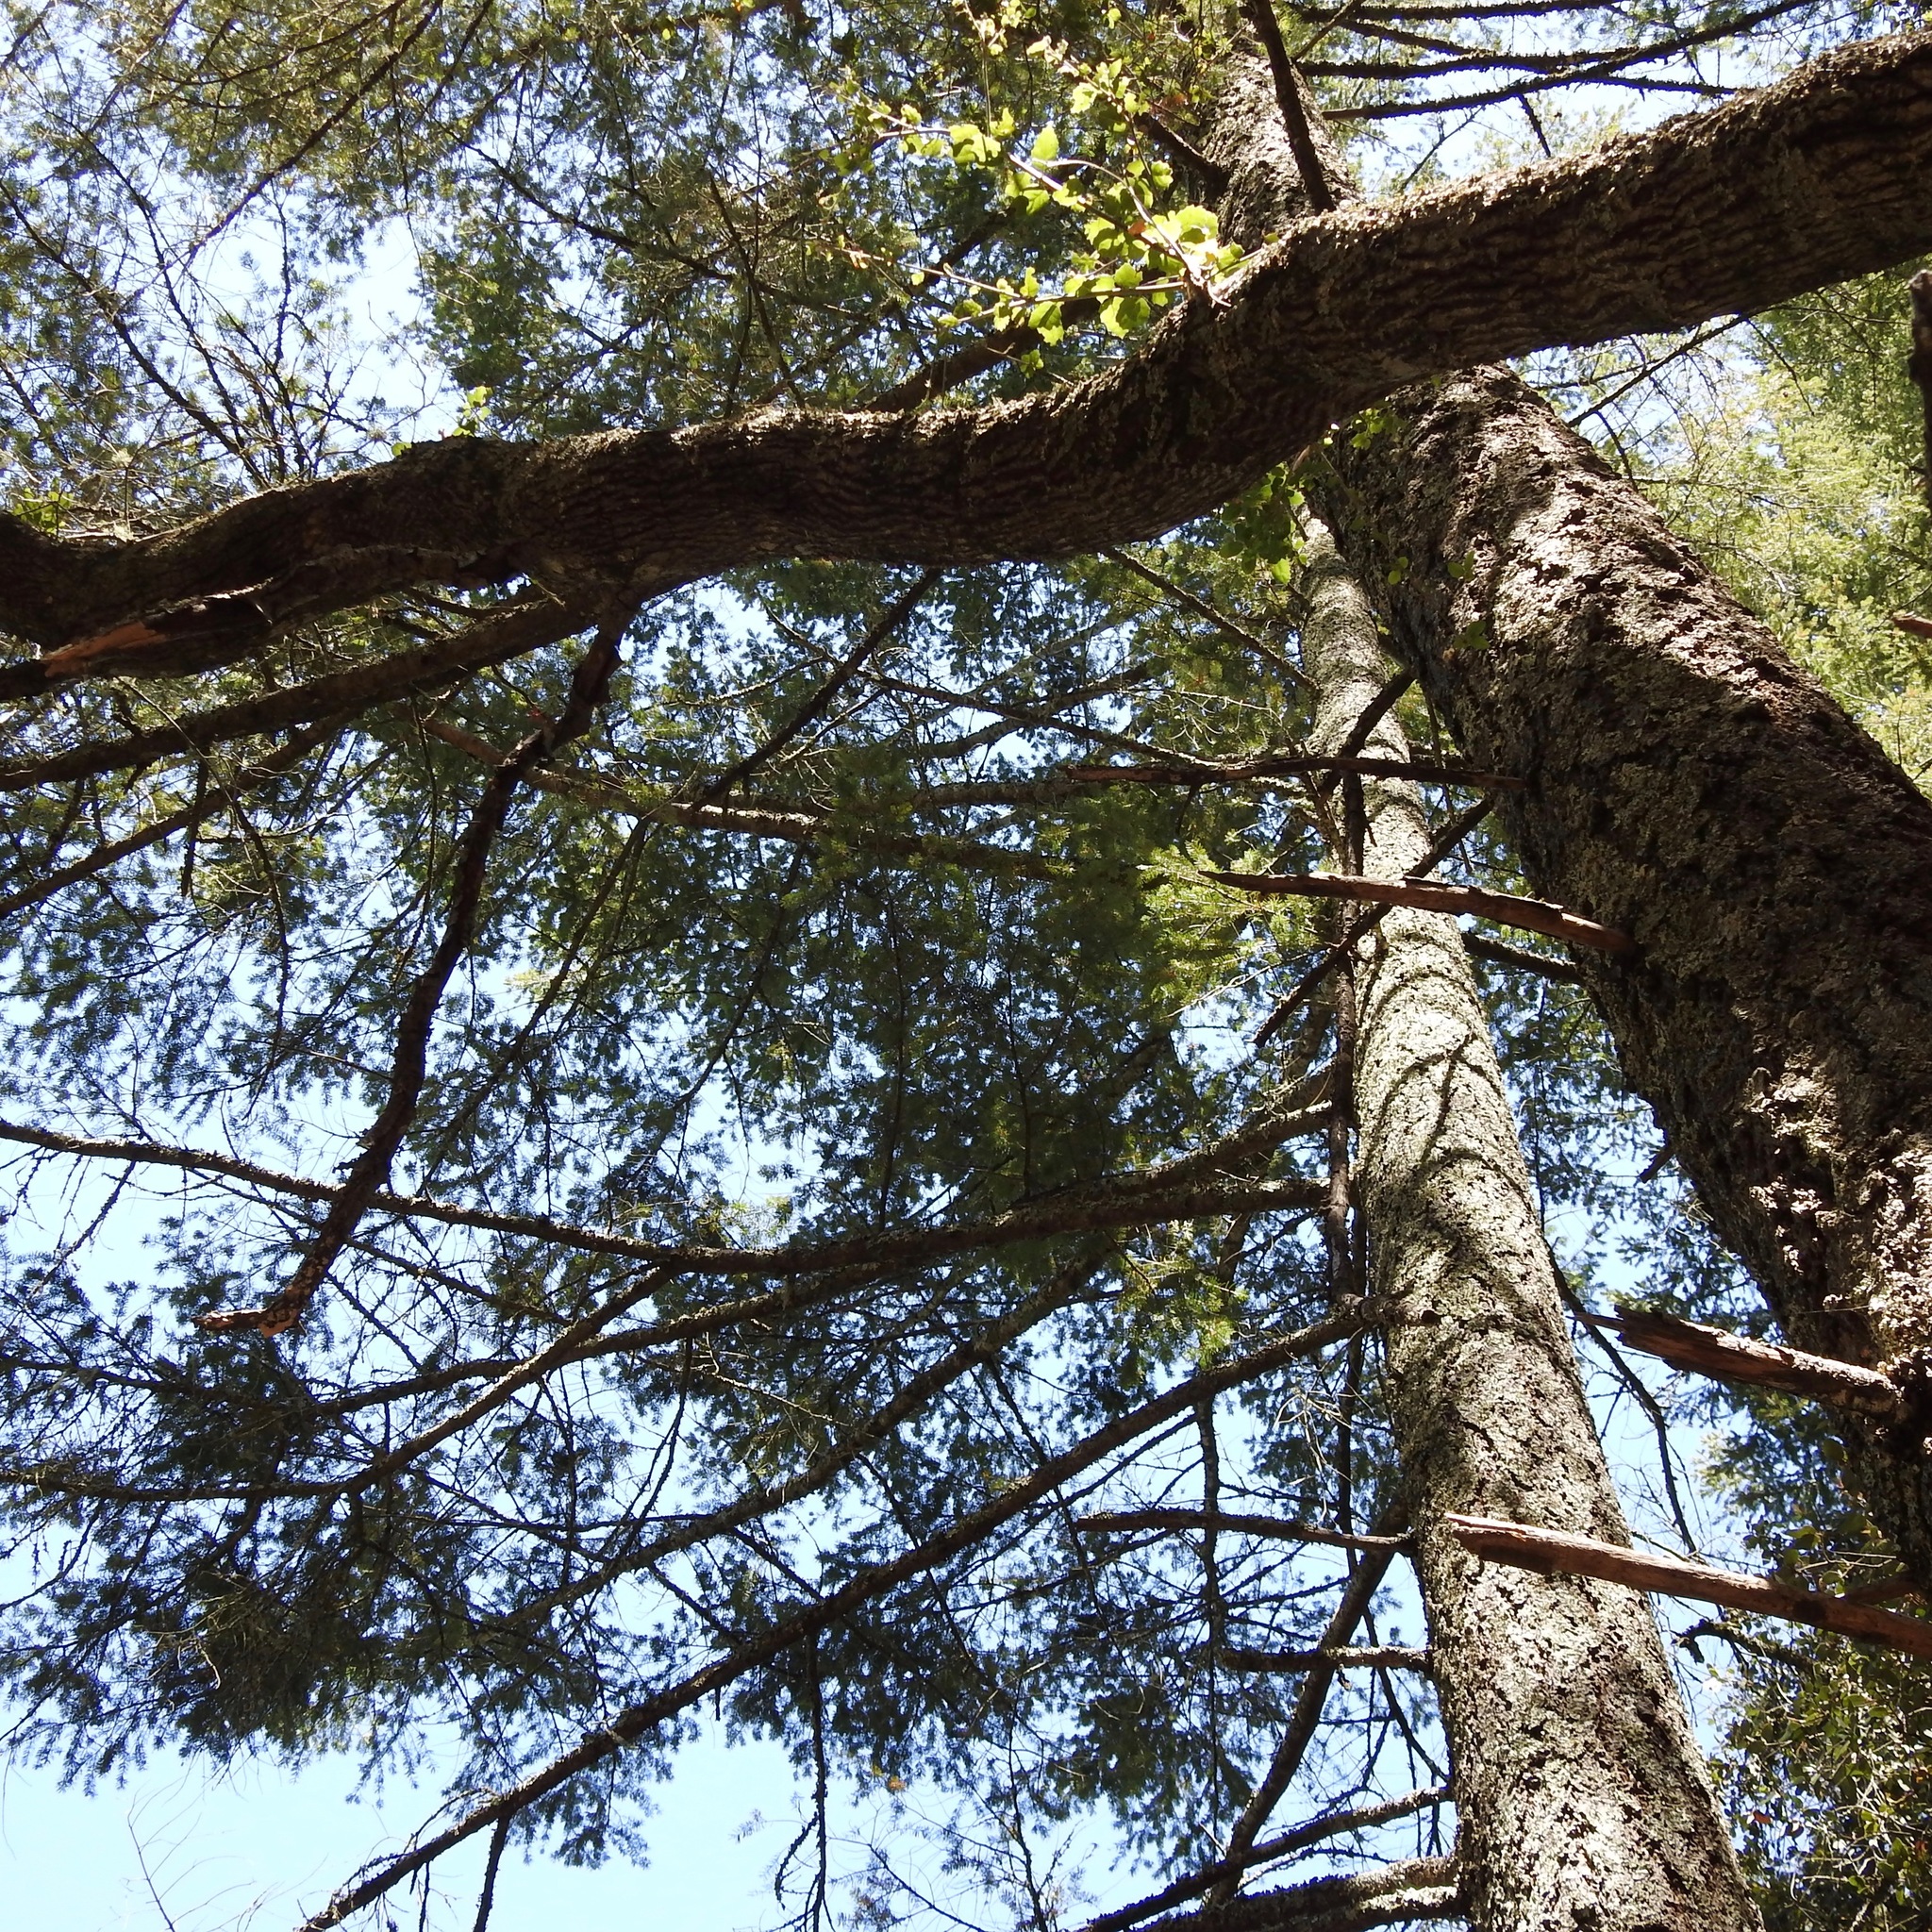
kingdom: Plantae
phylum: Tracheophyta
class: Pinopsida
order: Pinales
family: Pinaceae
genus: Pseudotsuga
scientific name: Pseudotsuga menziesii
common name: Douglas fir
